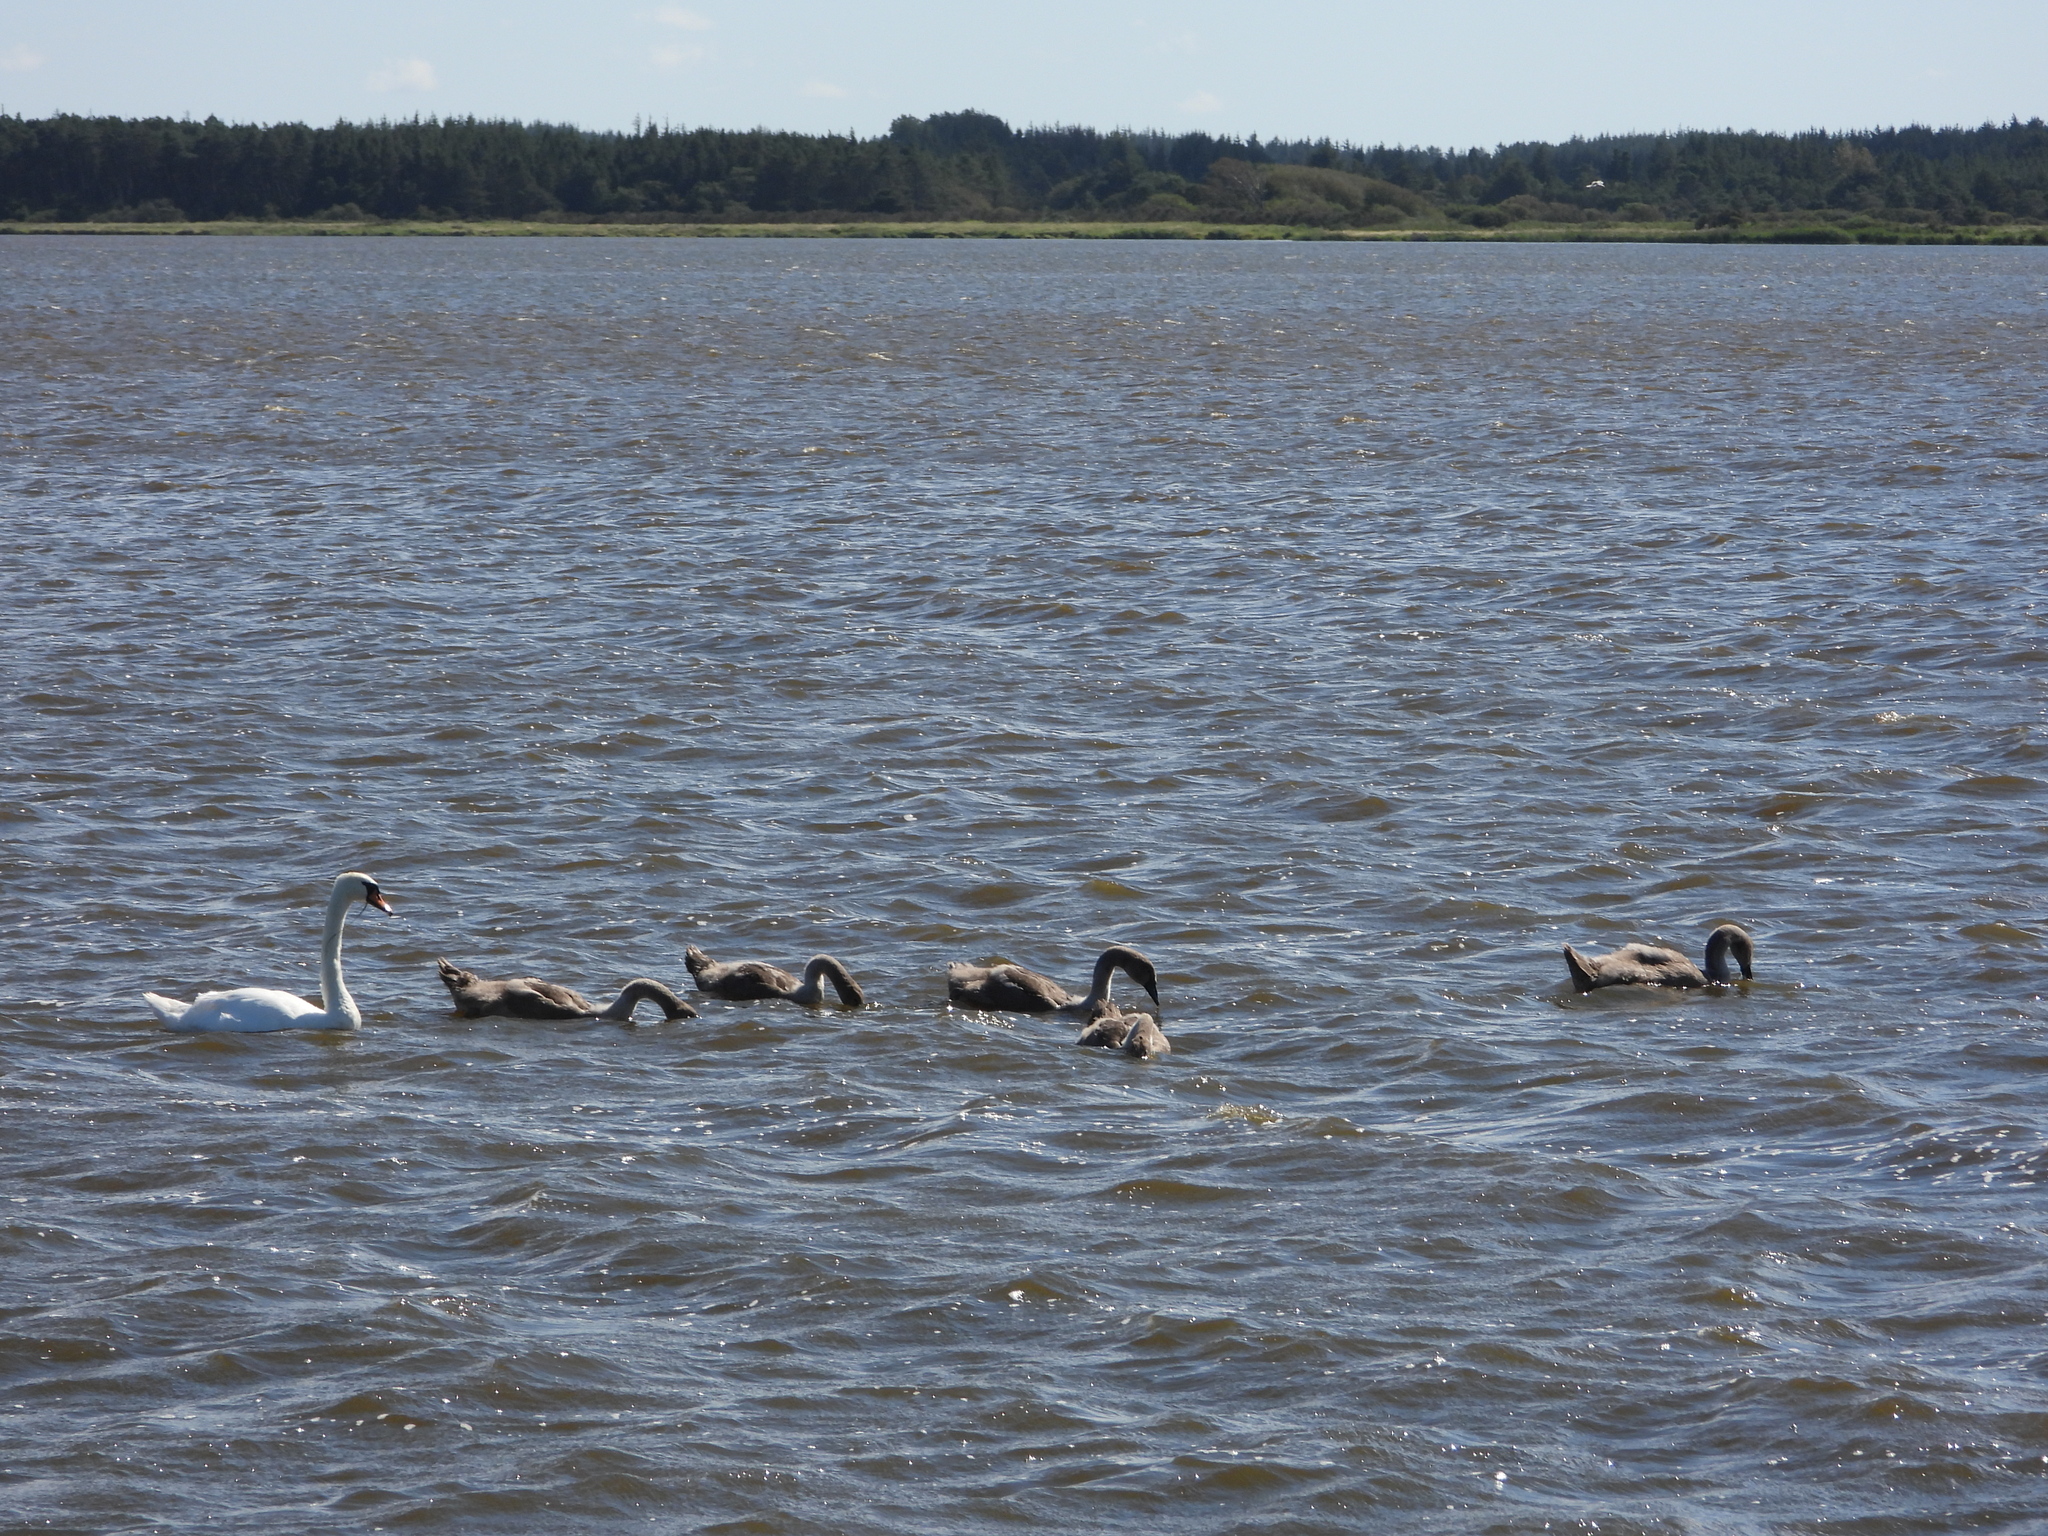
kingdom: Animalia
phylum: Chordata
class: Aves
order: Anseriformes
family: Anatidae
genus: Cygnus
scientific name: Cygnus olor
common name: Mute swan
